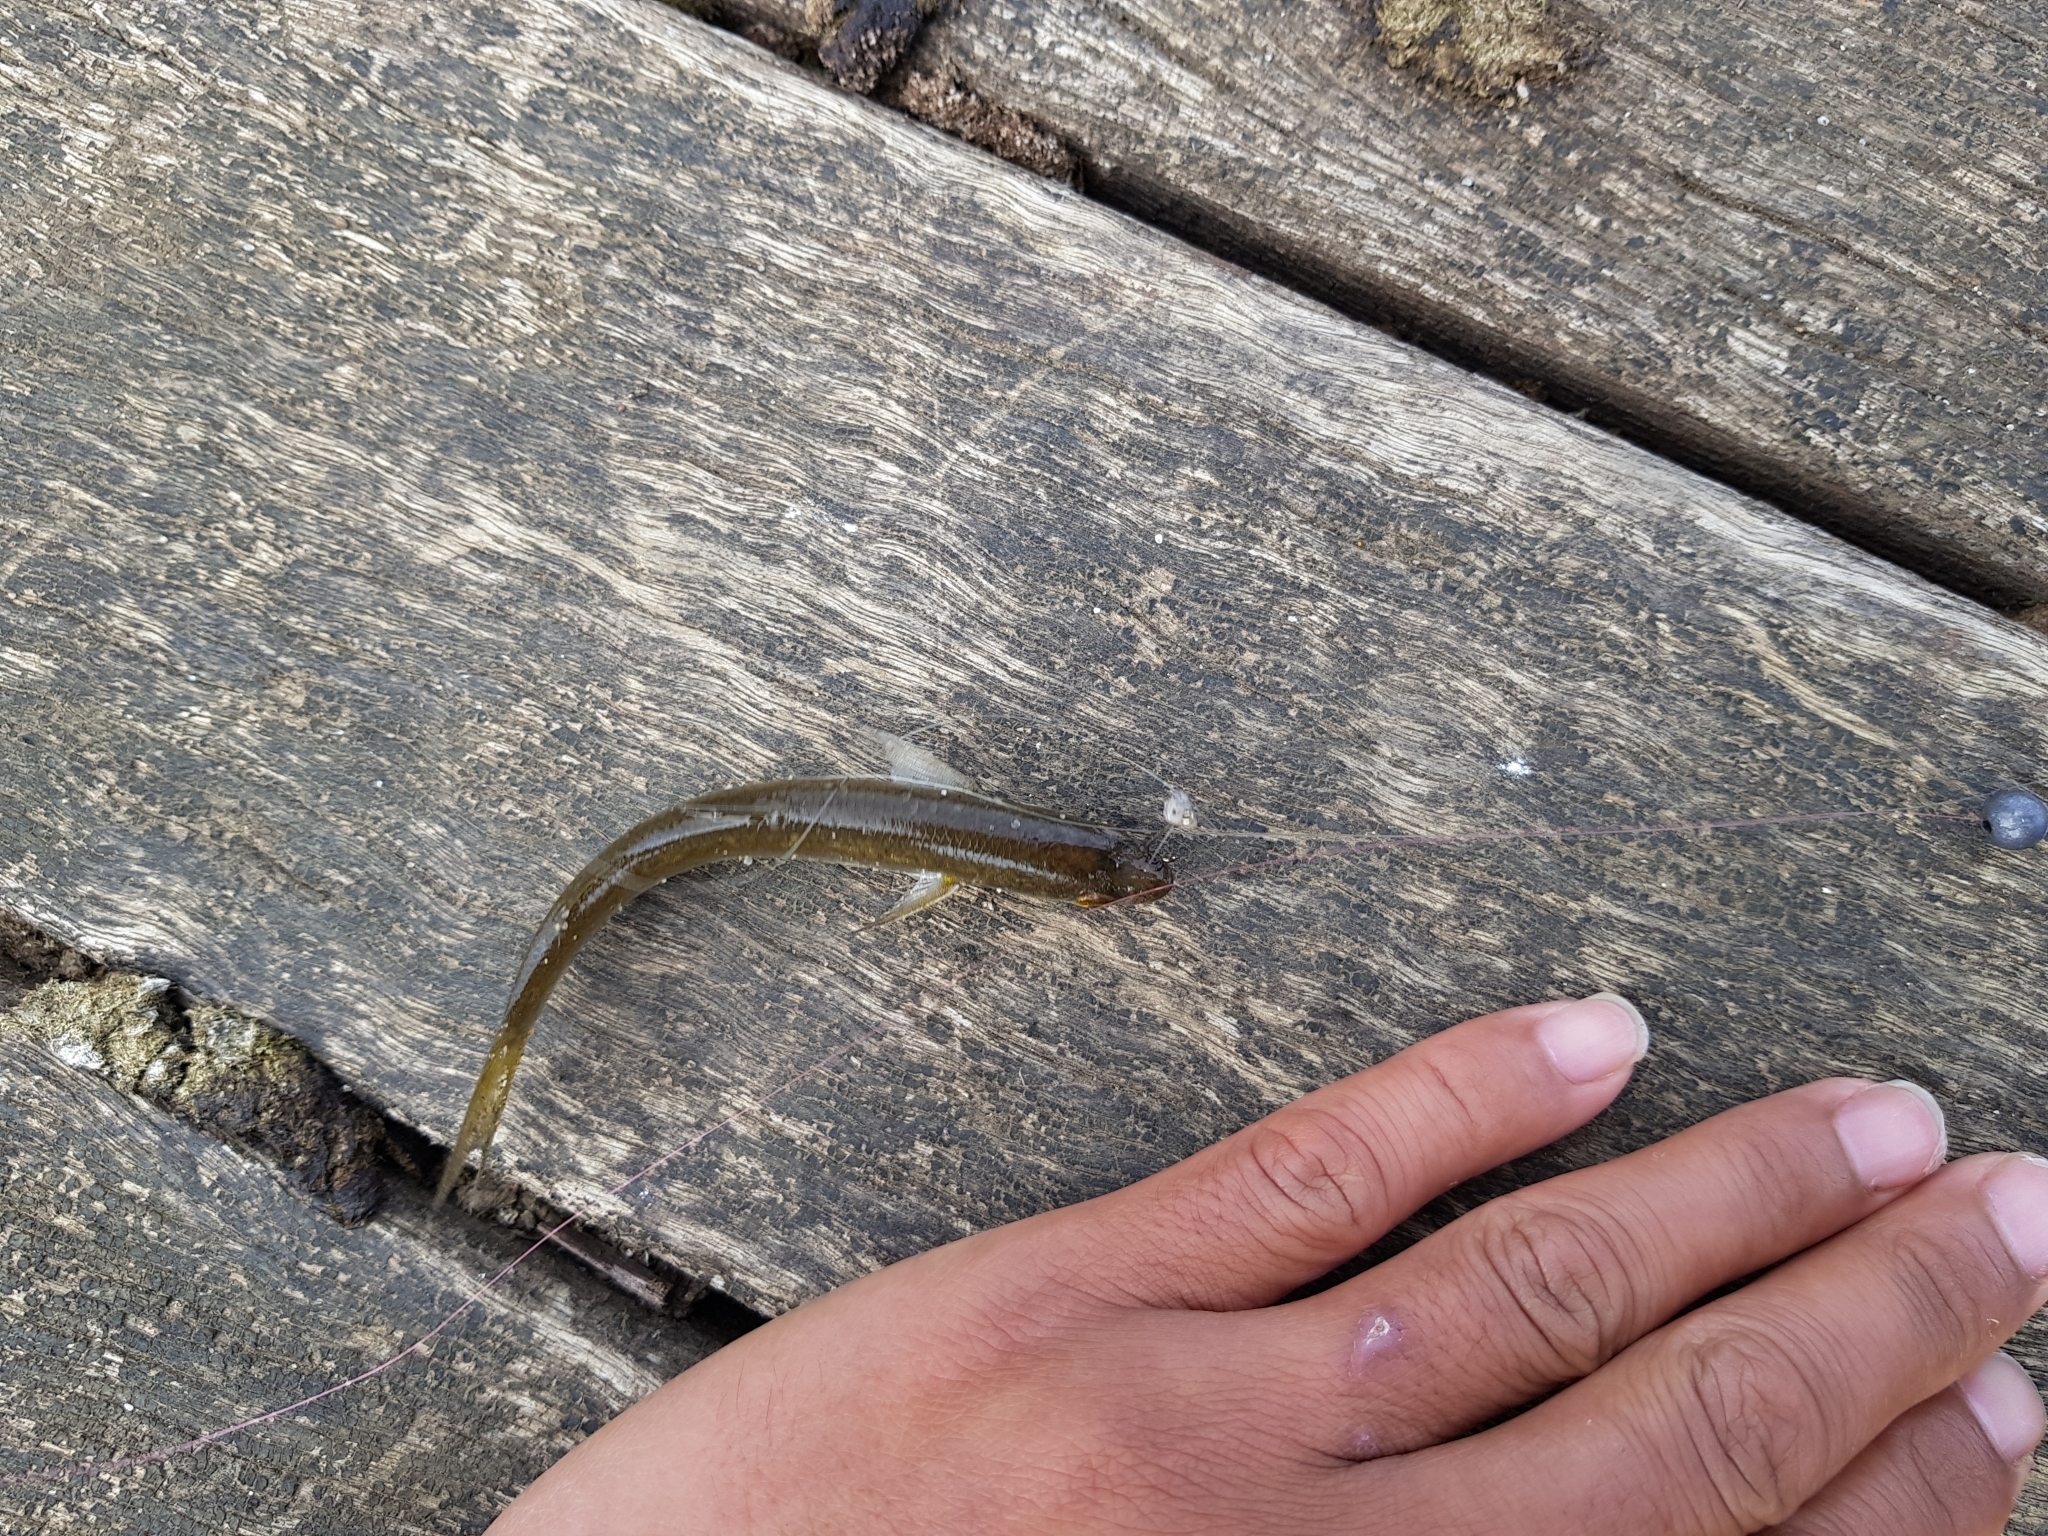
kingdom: Animalia
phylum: Chordata
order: Mugiliformes
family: Mugilidae
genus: Aldrichetta
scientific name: Aldrichetta forsteri
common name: Yellow-eye mullet
